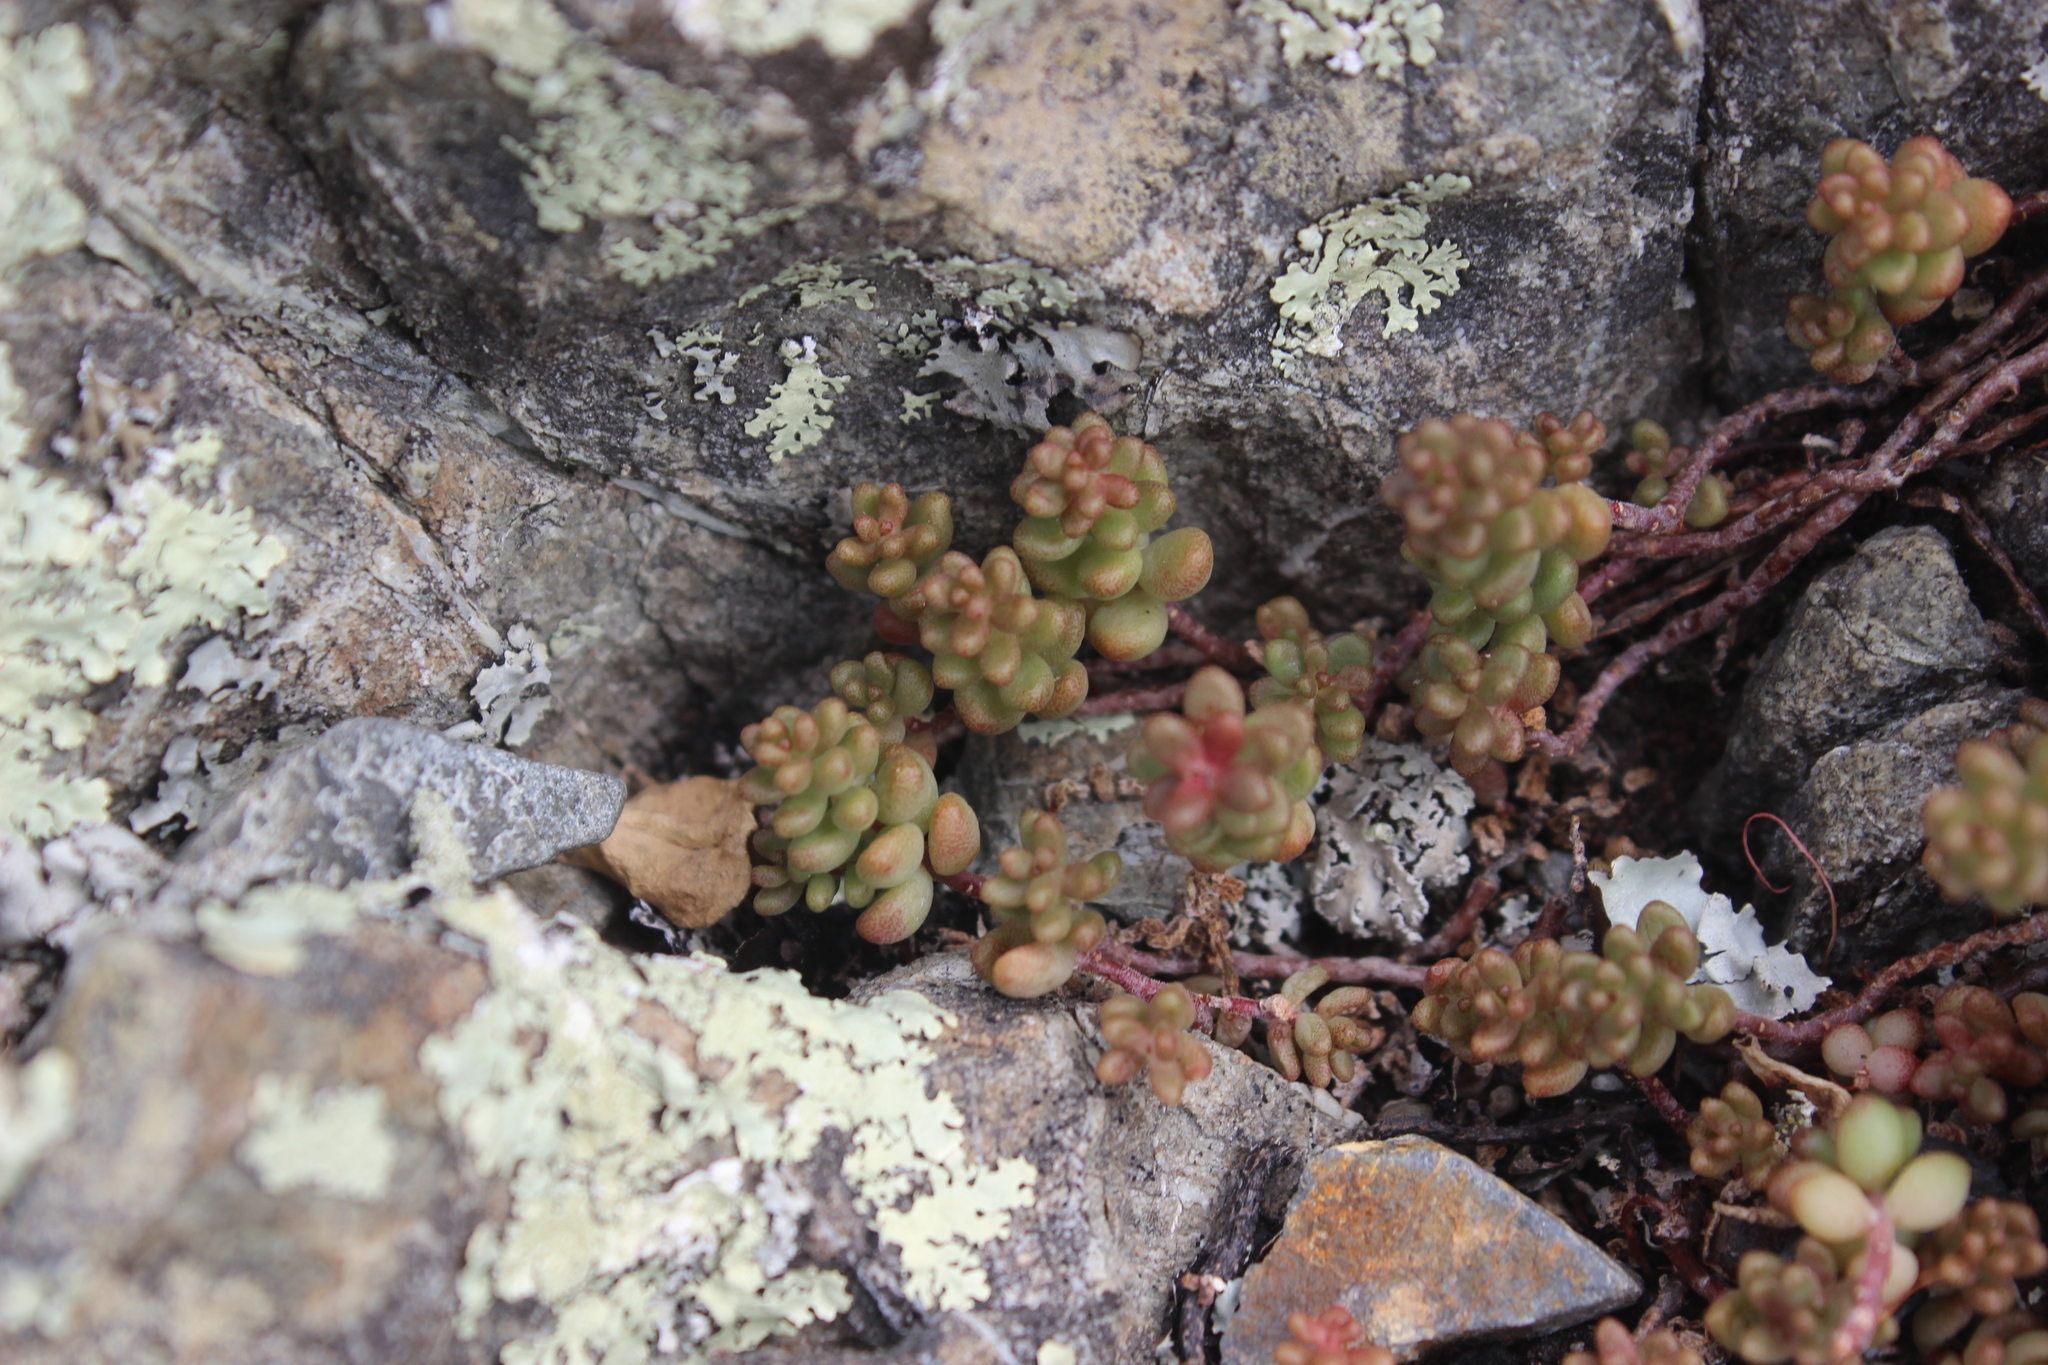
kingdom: Plantae
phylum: Tracheophyta
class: Magnoliopsida
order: Saxifragales
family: Crassulaceae
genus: Sedum
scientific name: Sedum album
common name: White stonecrop
